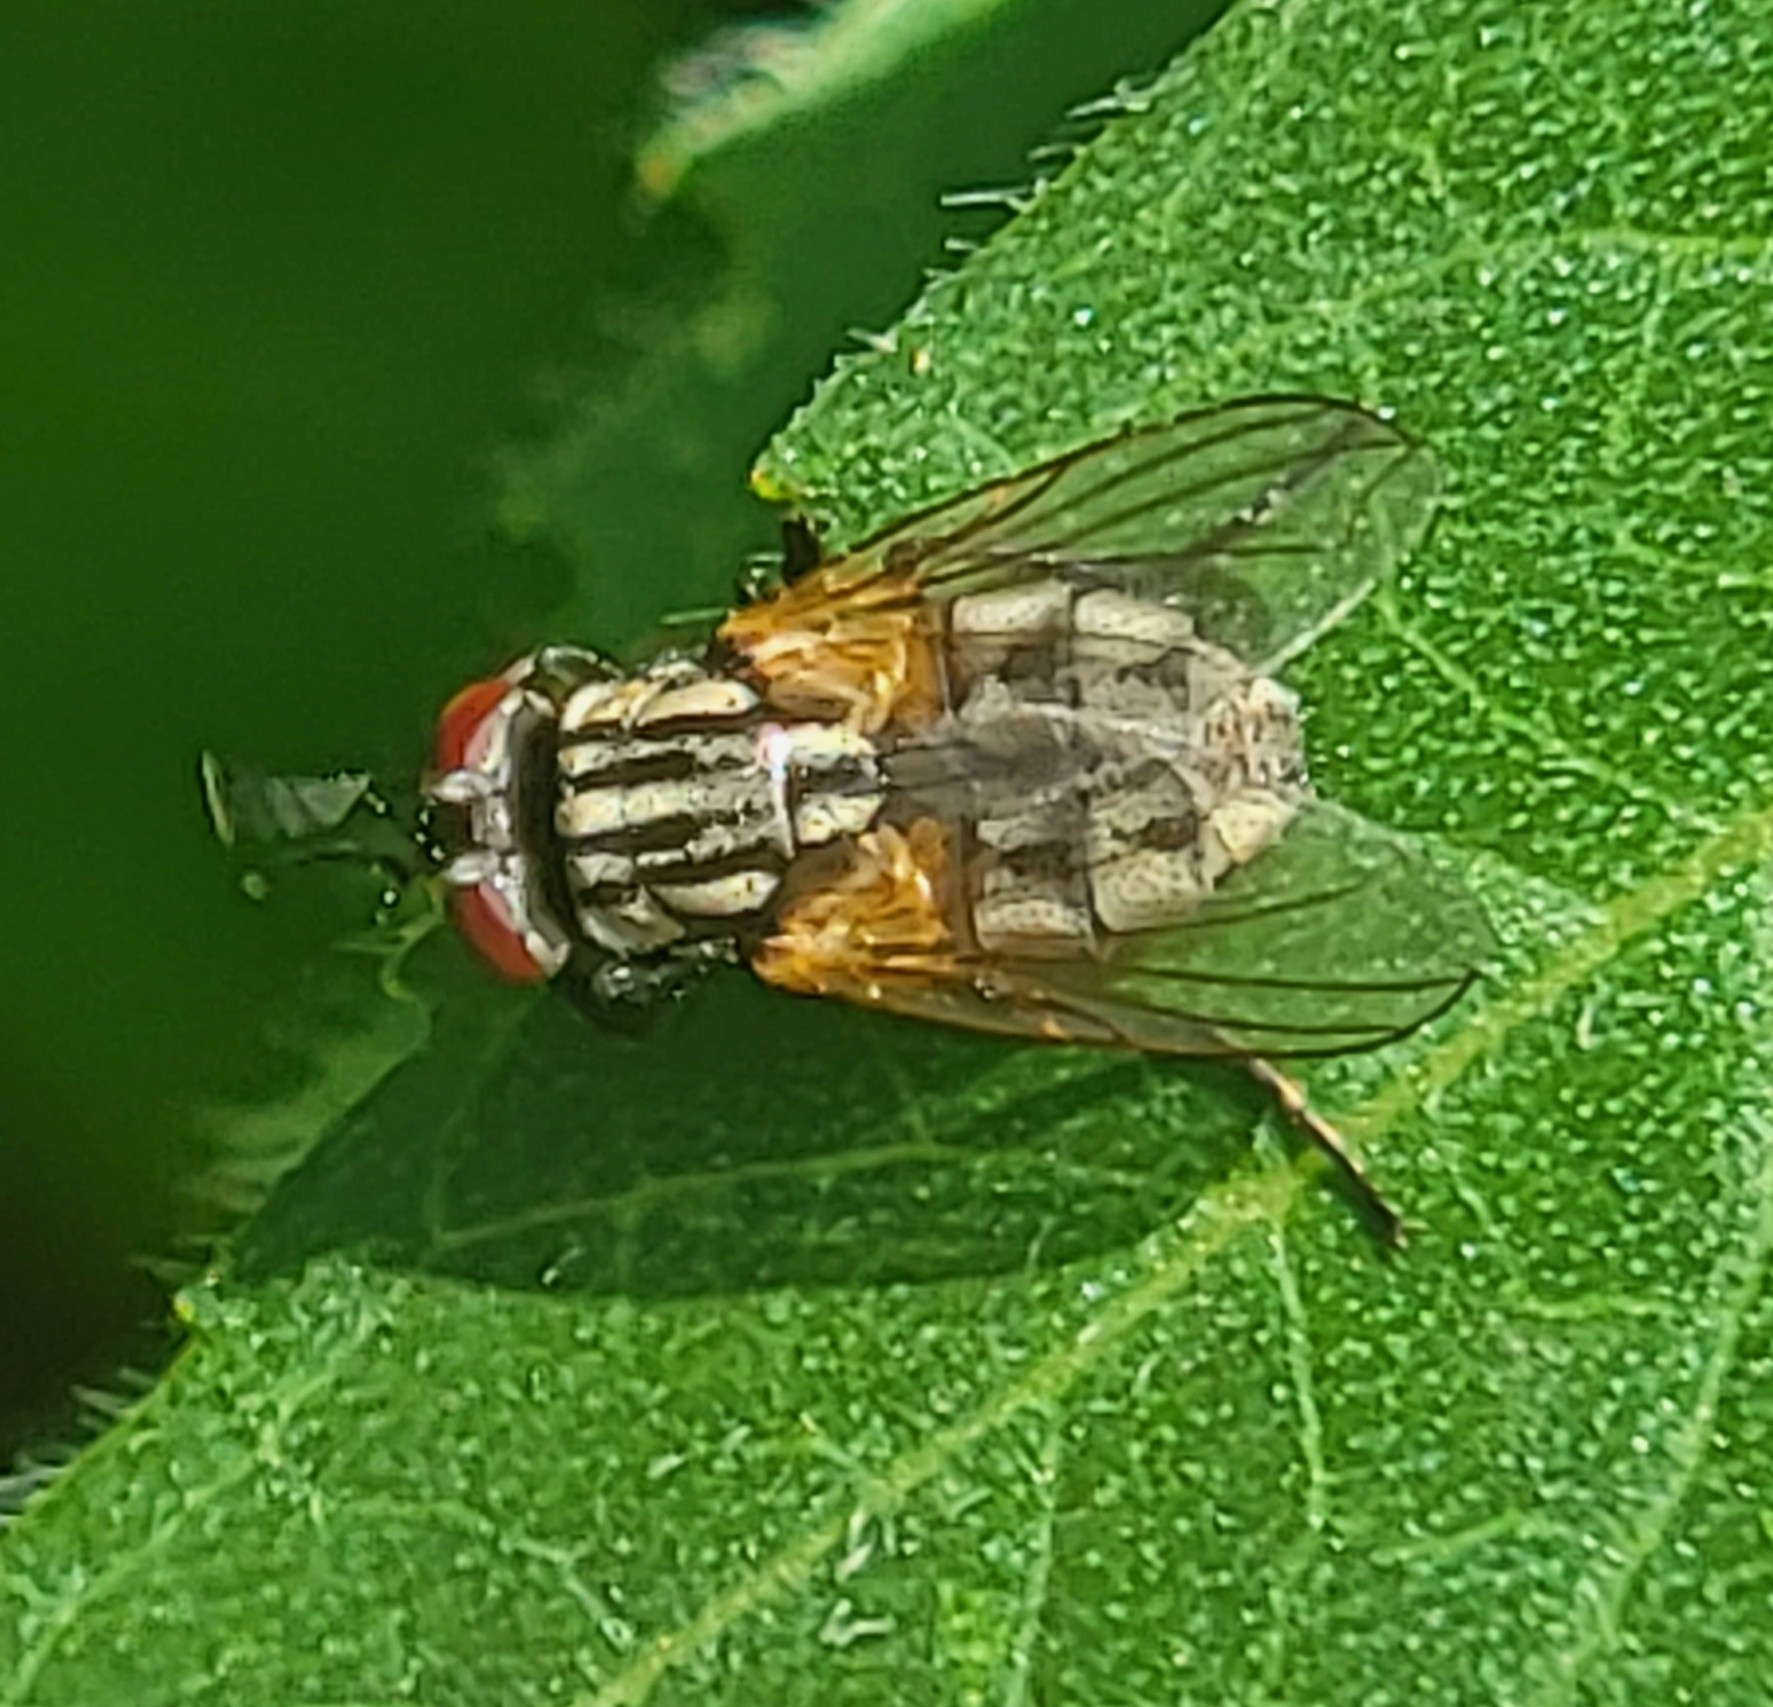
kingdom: Animalia
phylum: Arthropoda
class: Insecta
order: Diptera
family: Muscidae
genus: Musca
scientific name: Musca domestica
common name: House fly
